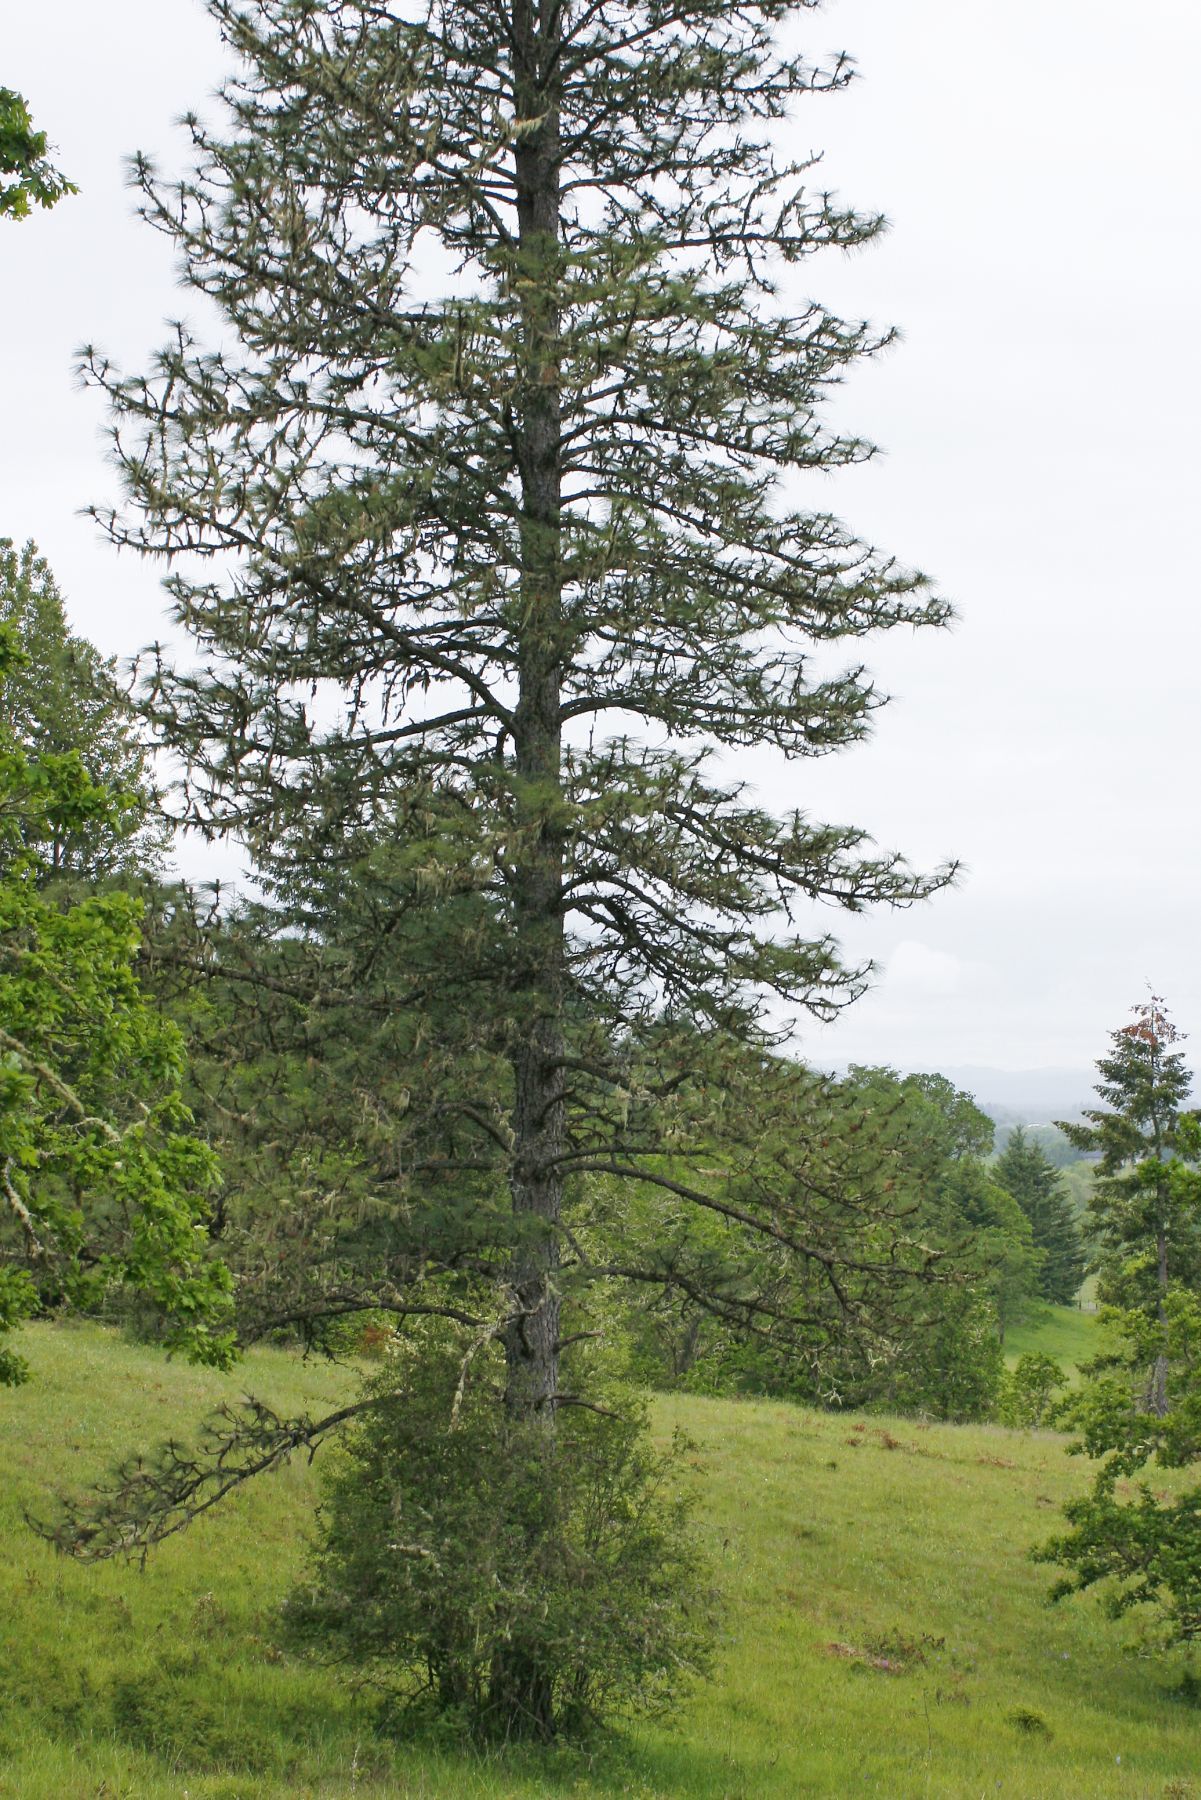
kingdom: Plantae
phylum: Tracheophyta
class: Pinopsida
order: Pinales
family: Pinaceae
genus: Pinus
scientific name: Pinus ponderosa
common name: Western yellow-pine
